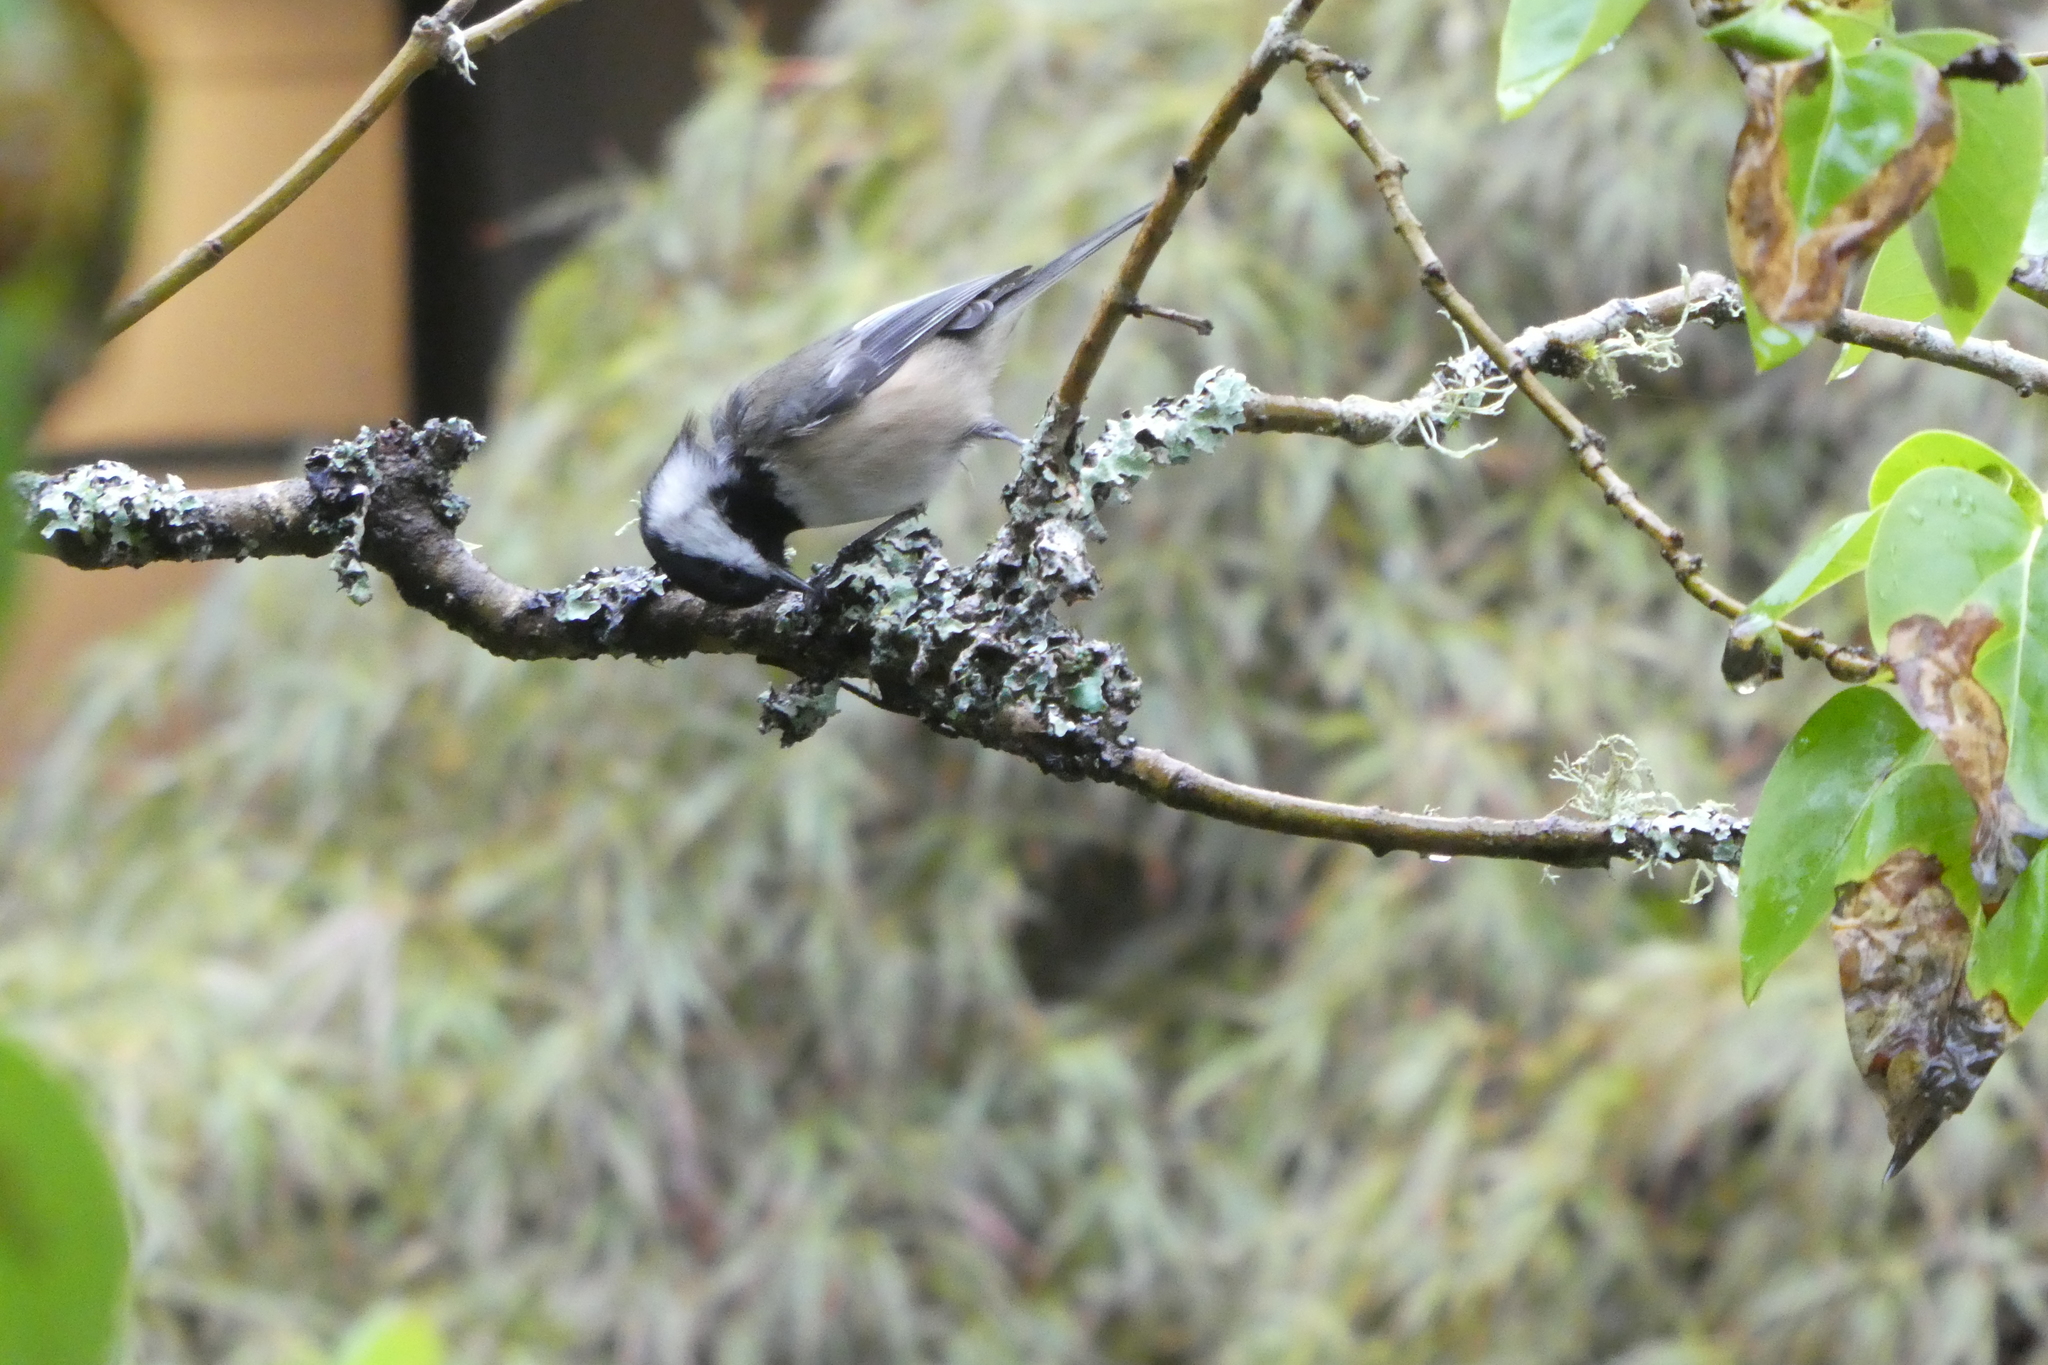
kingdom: Animalia
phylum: Chordata
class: Aves
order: Passeriformes
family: Paridae
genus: Poecile
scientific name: Poecile atricapillus
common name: Black-capped chickadee
